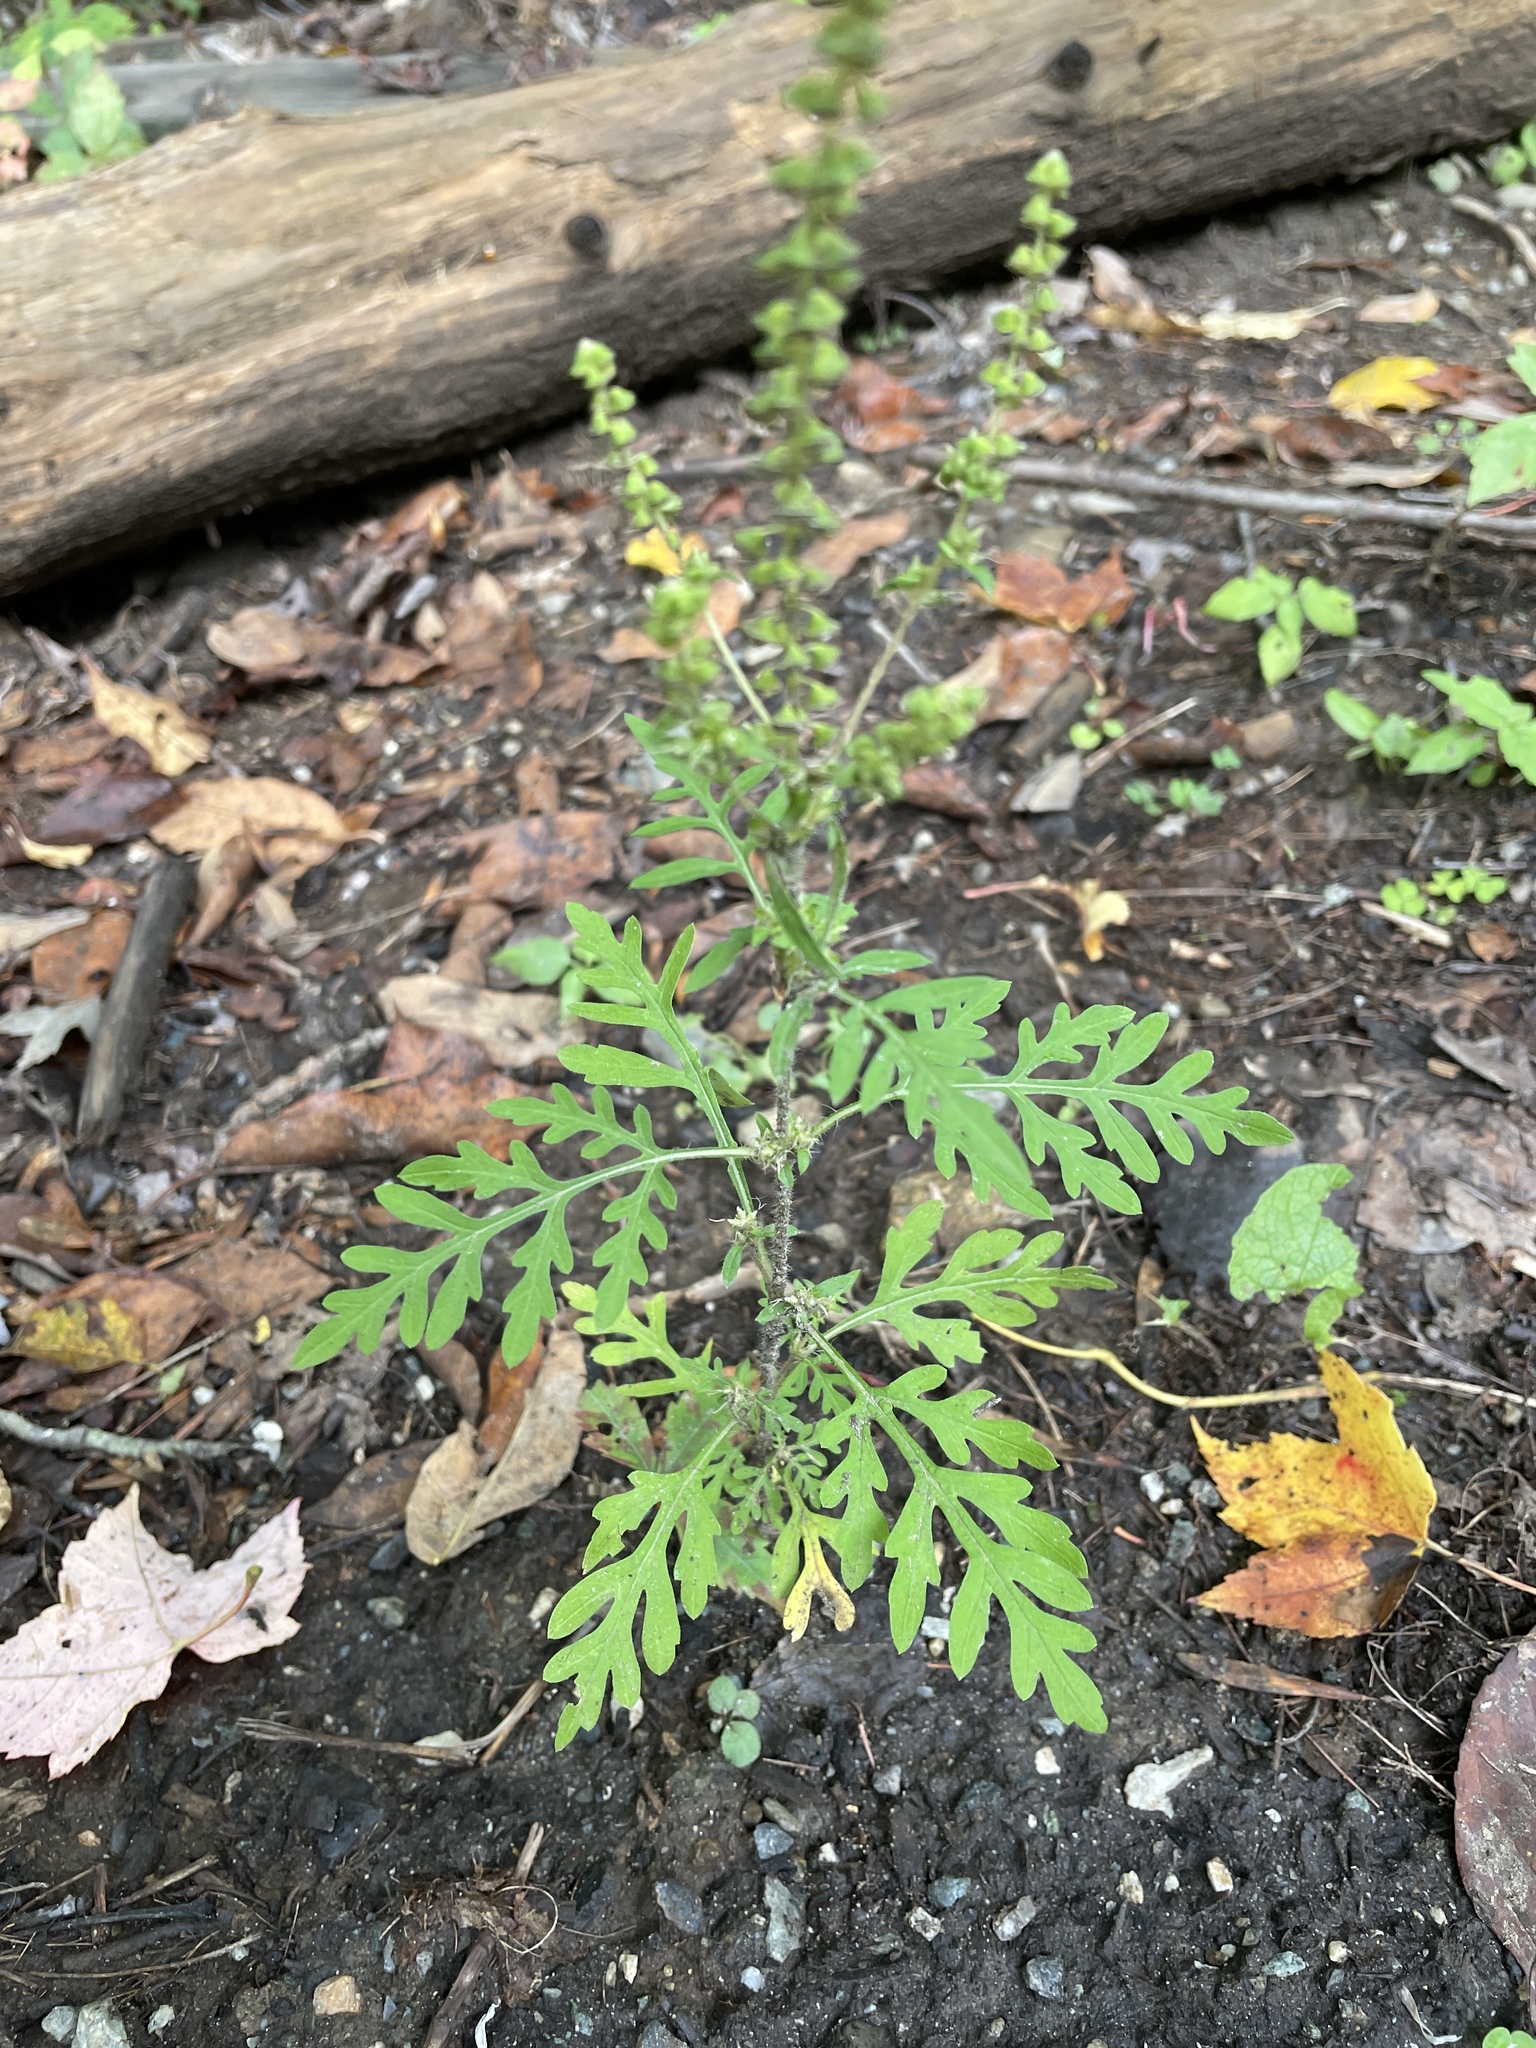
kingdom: Plantae
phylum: Tracheophyta
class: Magnoliopsida
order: Asterales
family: Asteraceae
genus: Ambrosia
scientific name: Ambrosia artemisiifolia
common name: Annual ragweed
